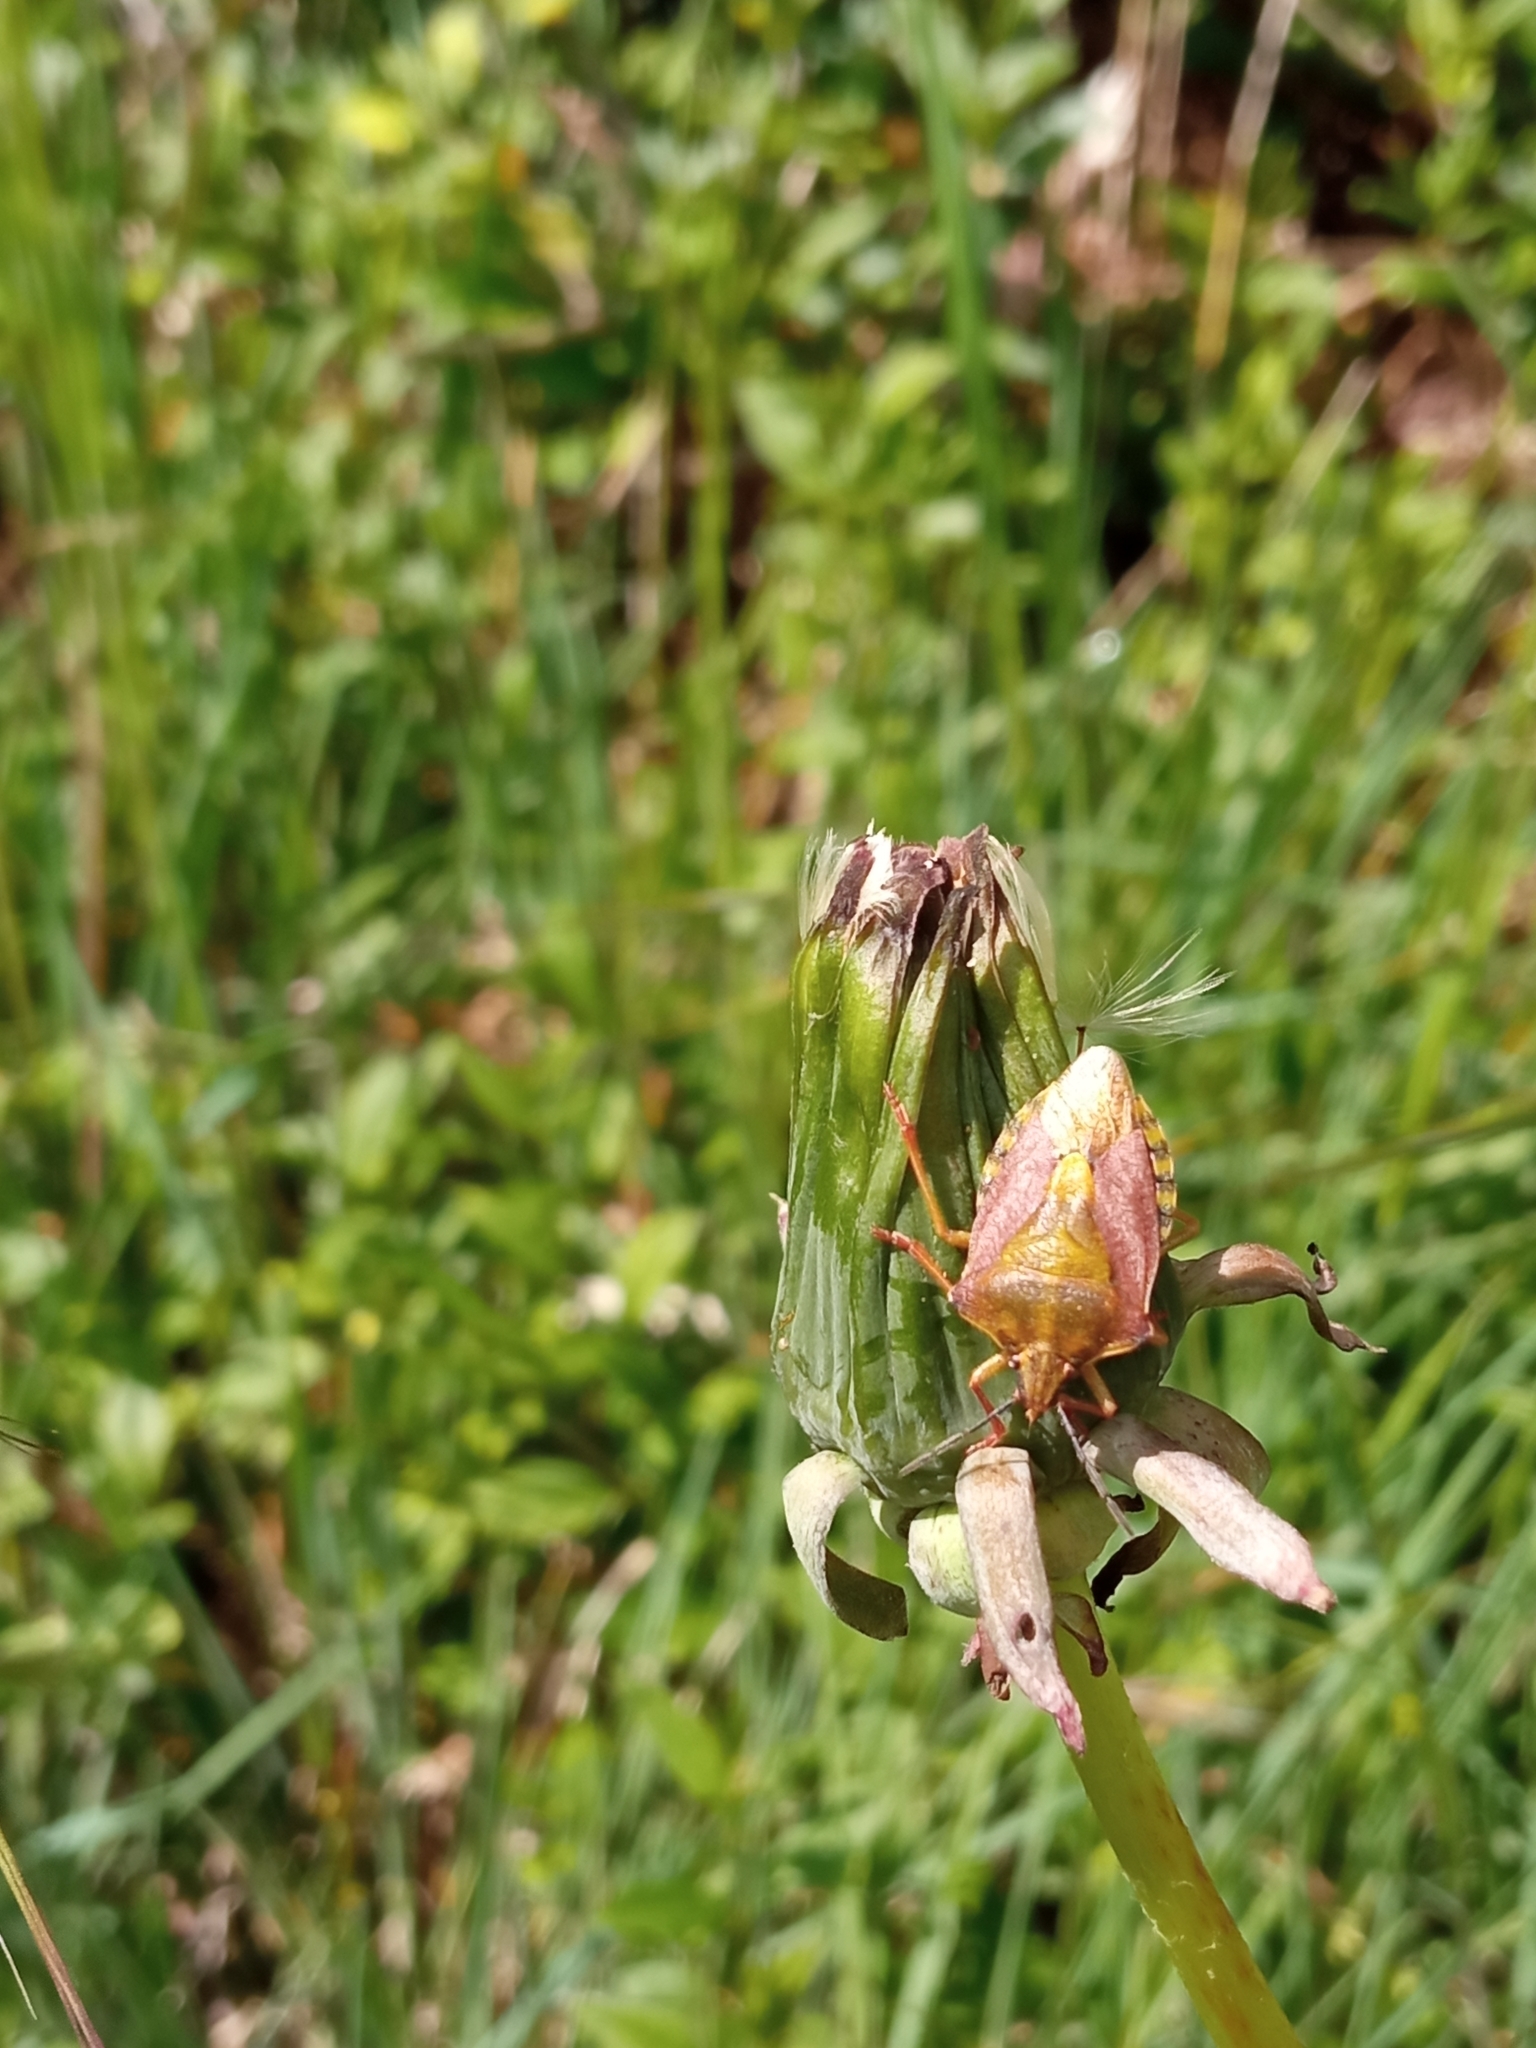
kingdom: Animalia
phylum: Arthropoda
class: Insecta
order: Hemiptera
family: Pentatomidae
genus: Carpocoris
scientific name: Carpocoris purpureipennis
